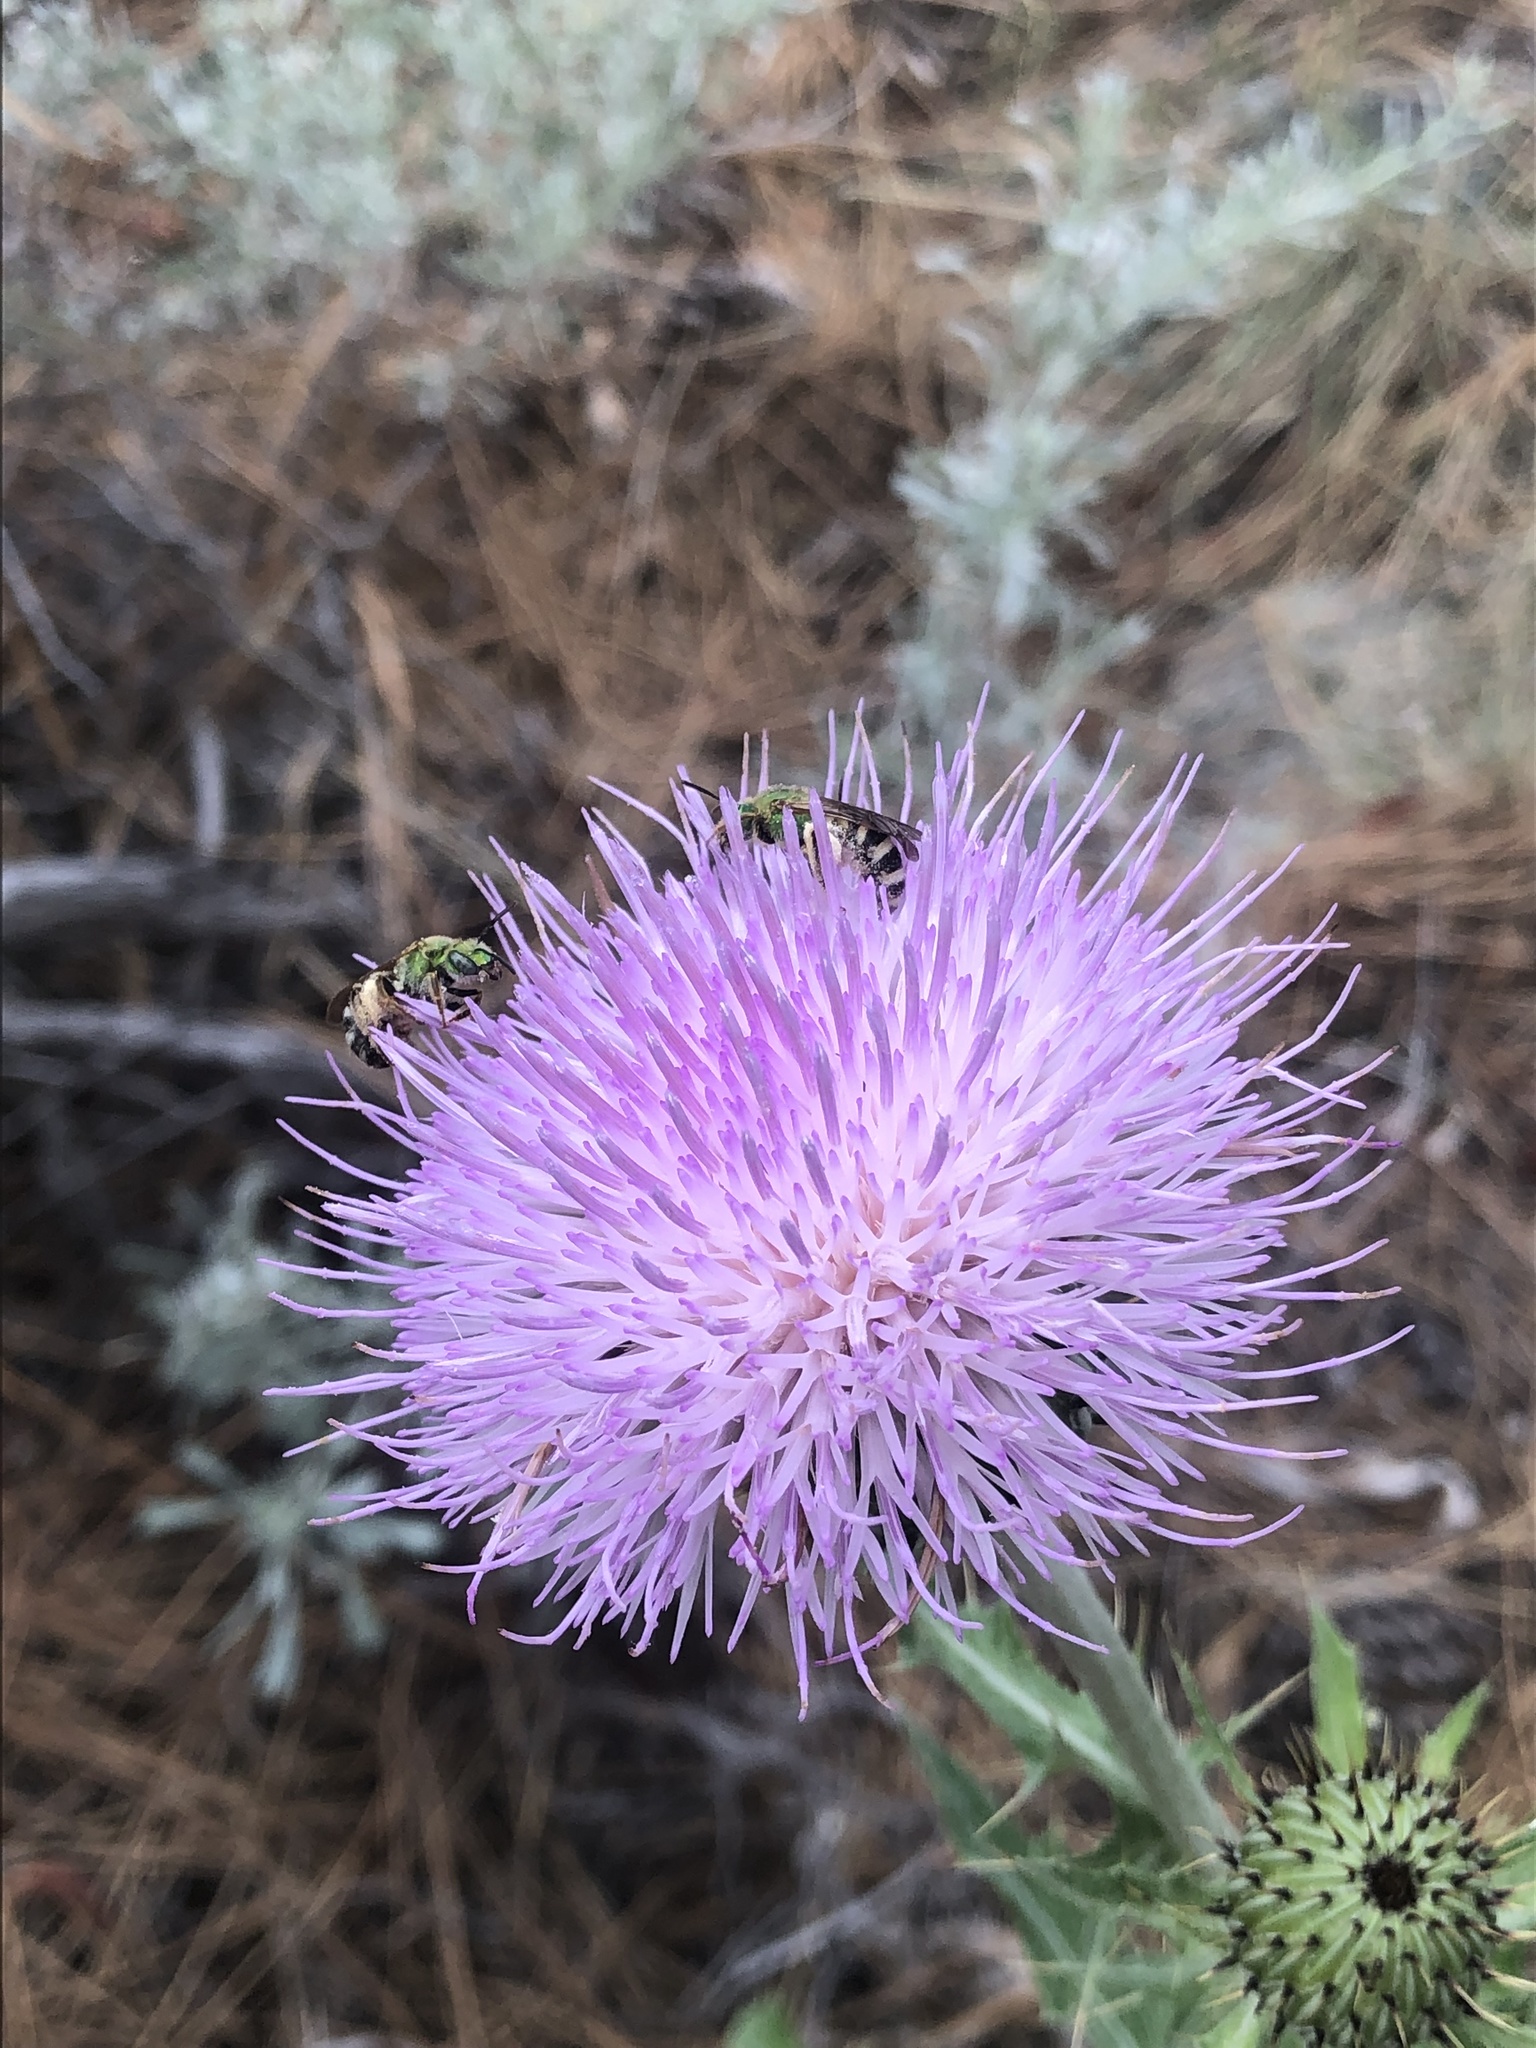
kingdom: Animalia
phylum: Arthropoda
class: Insecta
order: Hymenoptera
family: Halictidae
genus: Agapostemon
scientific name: Agapostemon virescens
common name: Bicolored striped sweat bee
